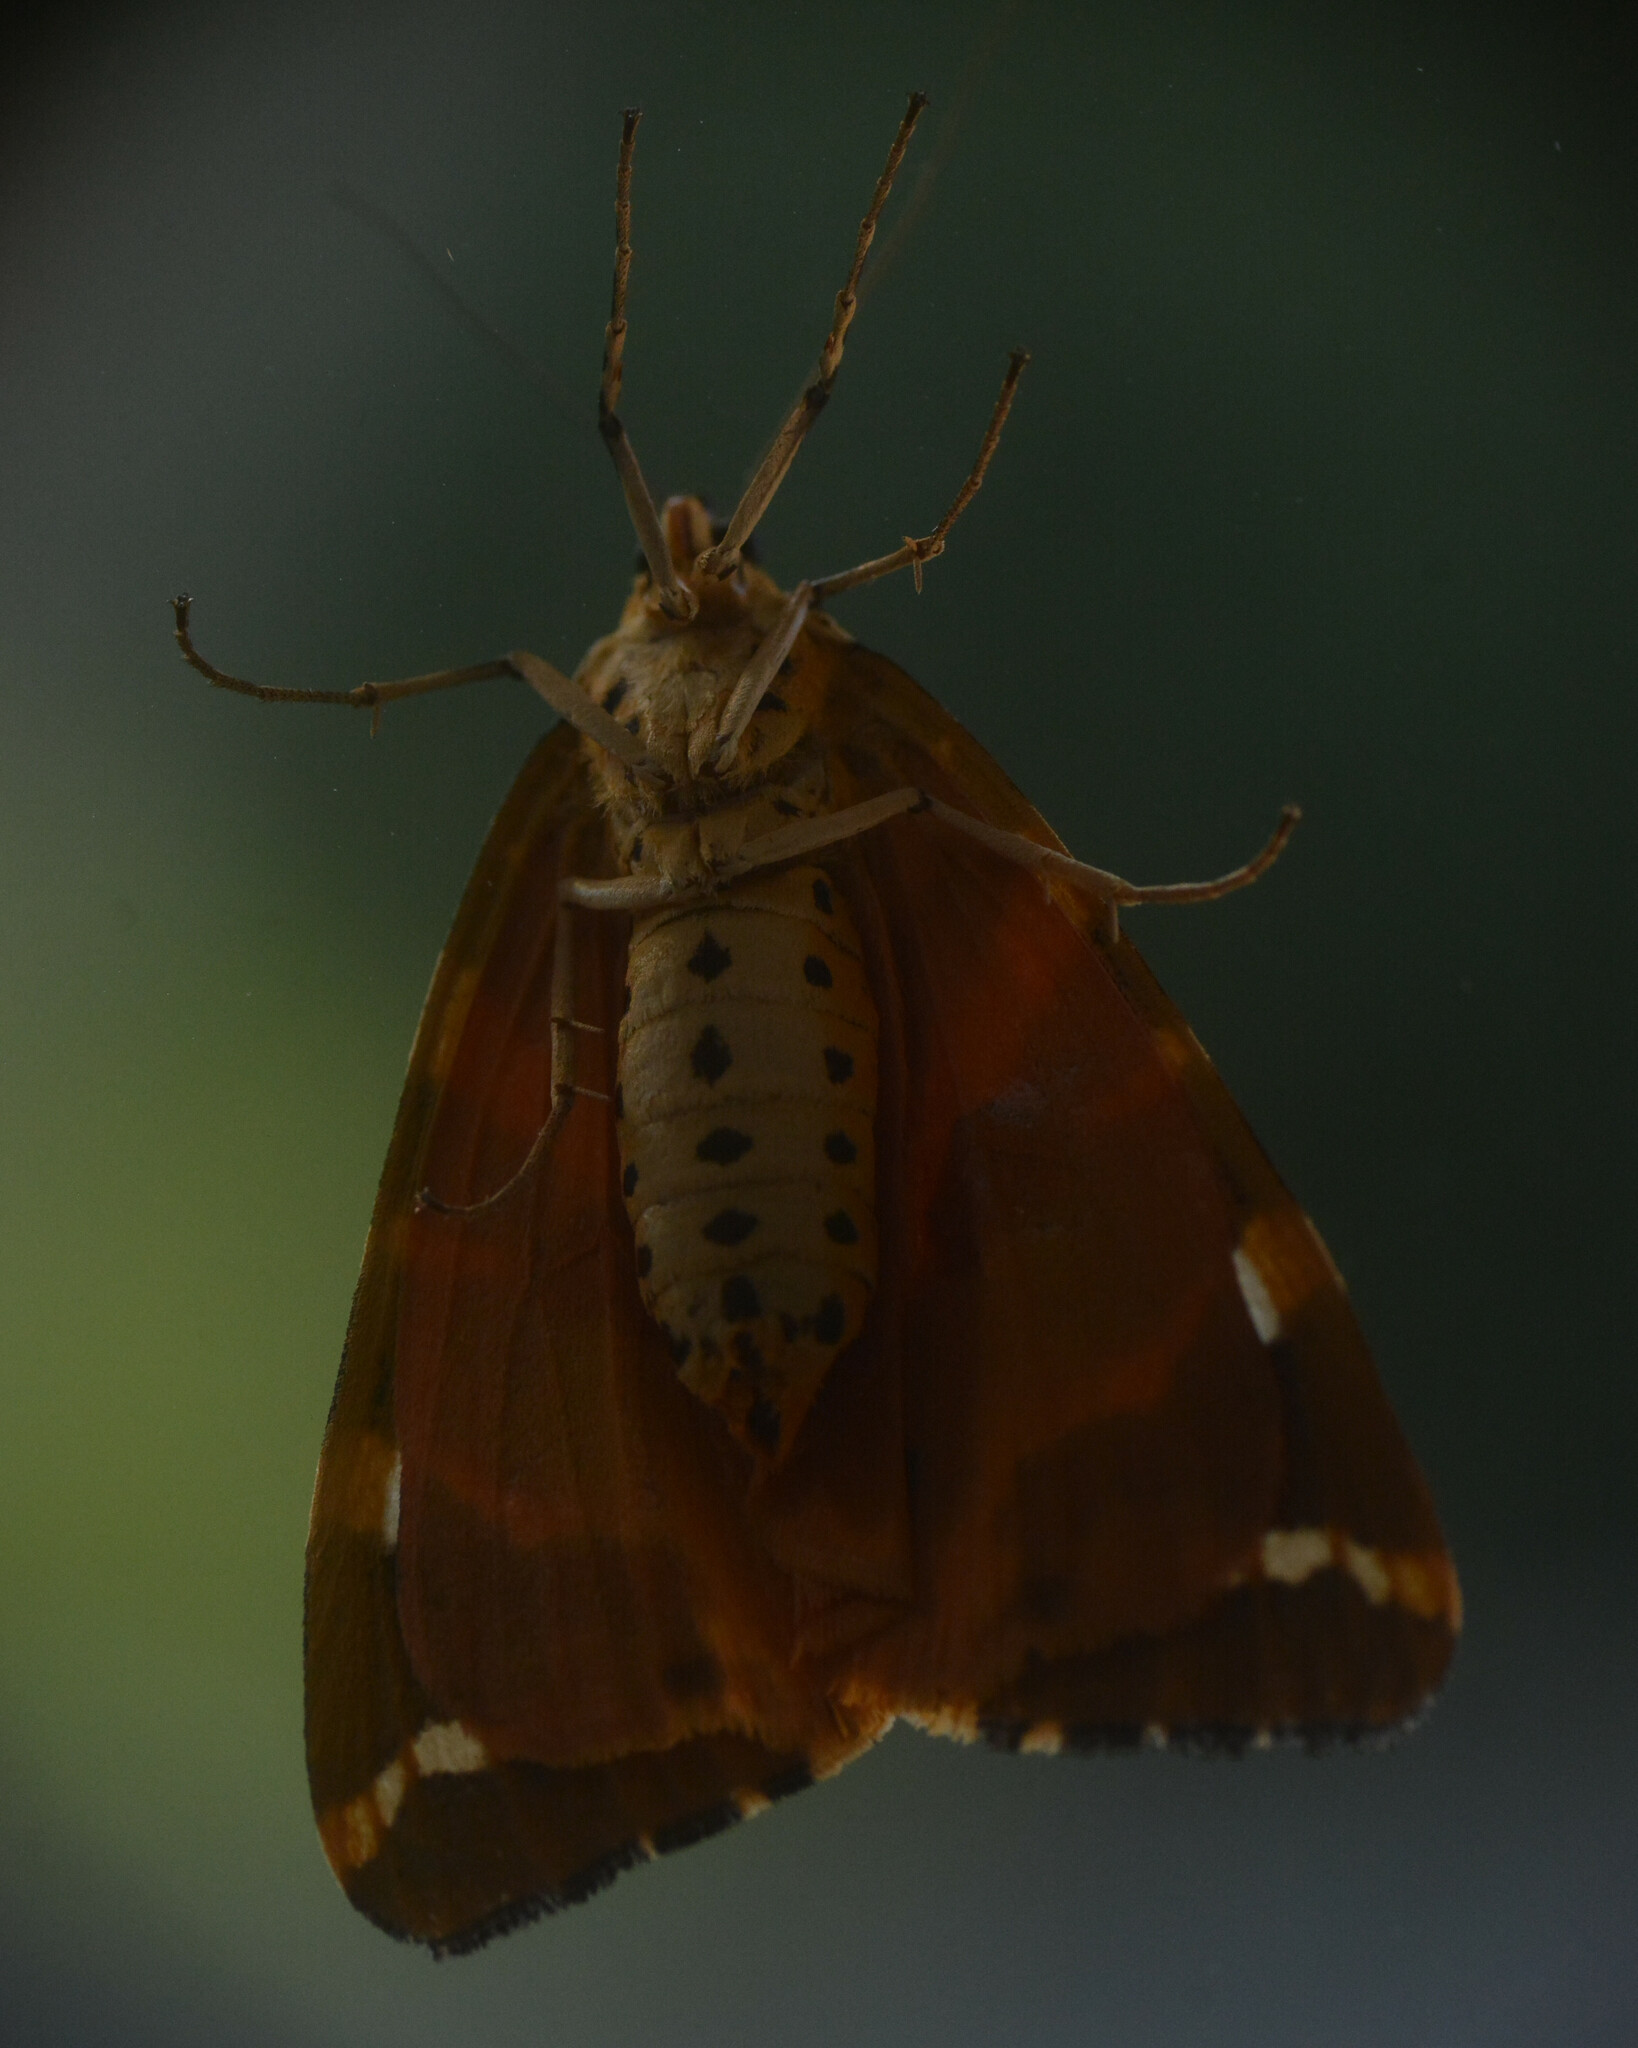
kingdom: Animalia
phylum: Arthropoda
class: Insecta
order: Lepidoptera
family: Erebidae
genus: Euplagia
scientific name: Euplagia quadripunctaria
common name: Jersey tiger
